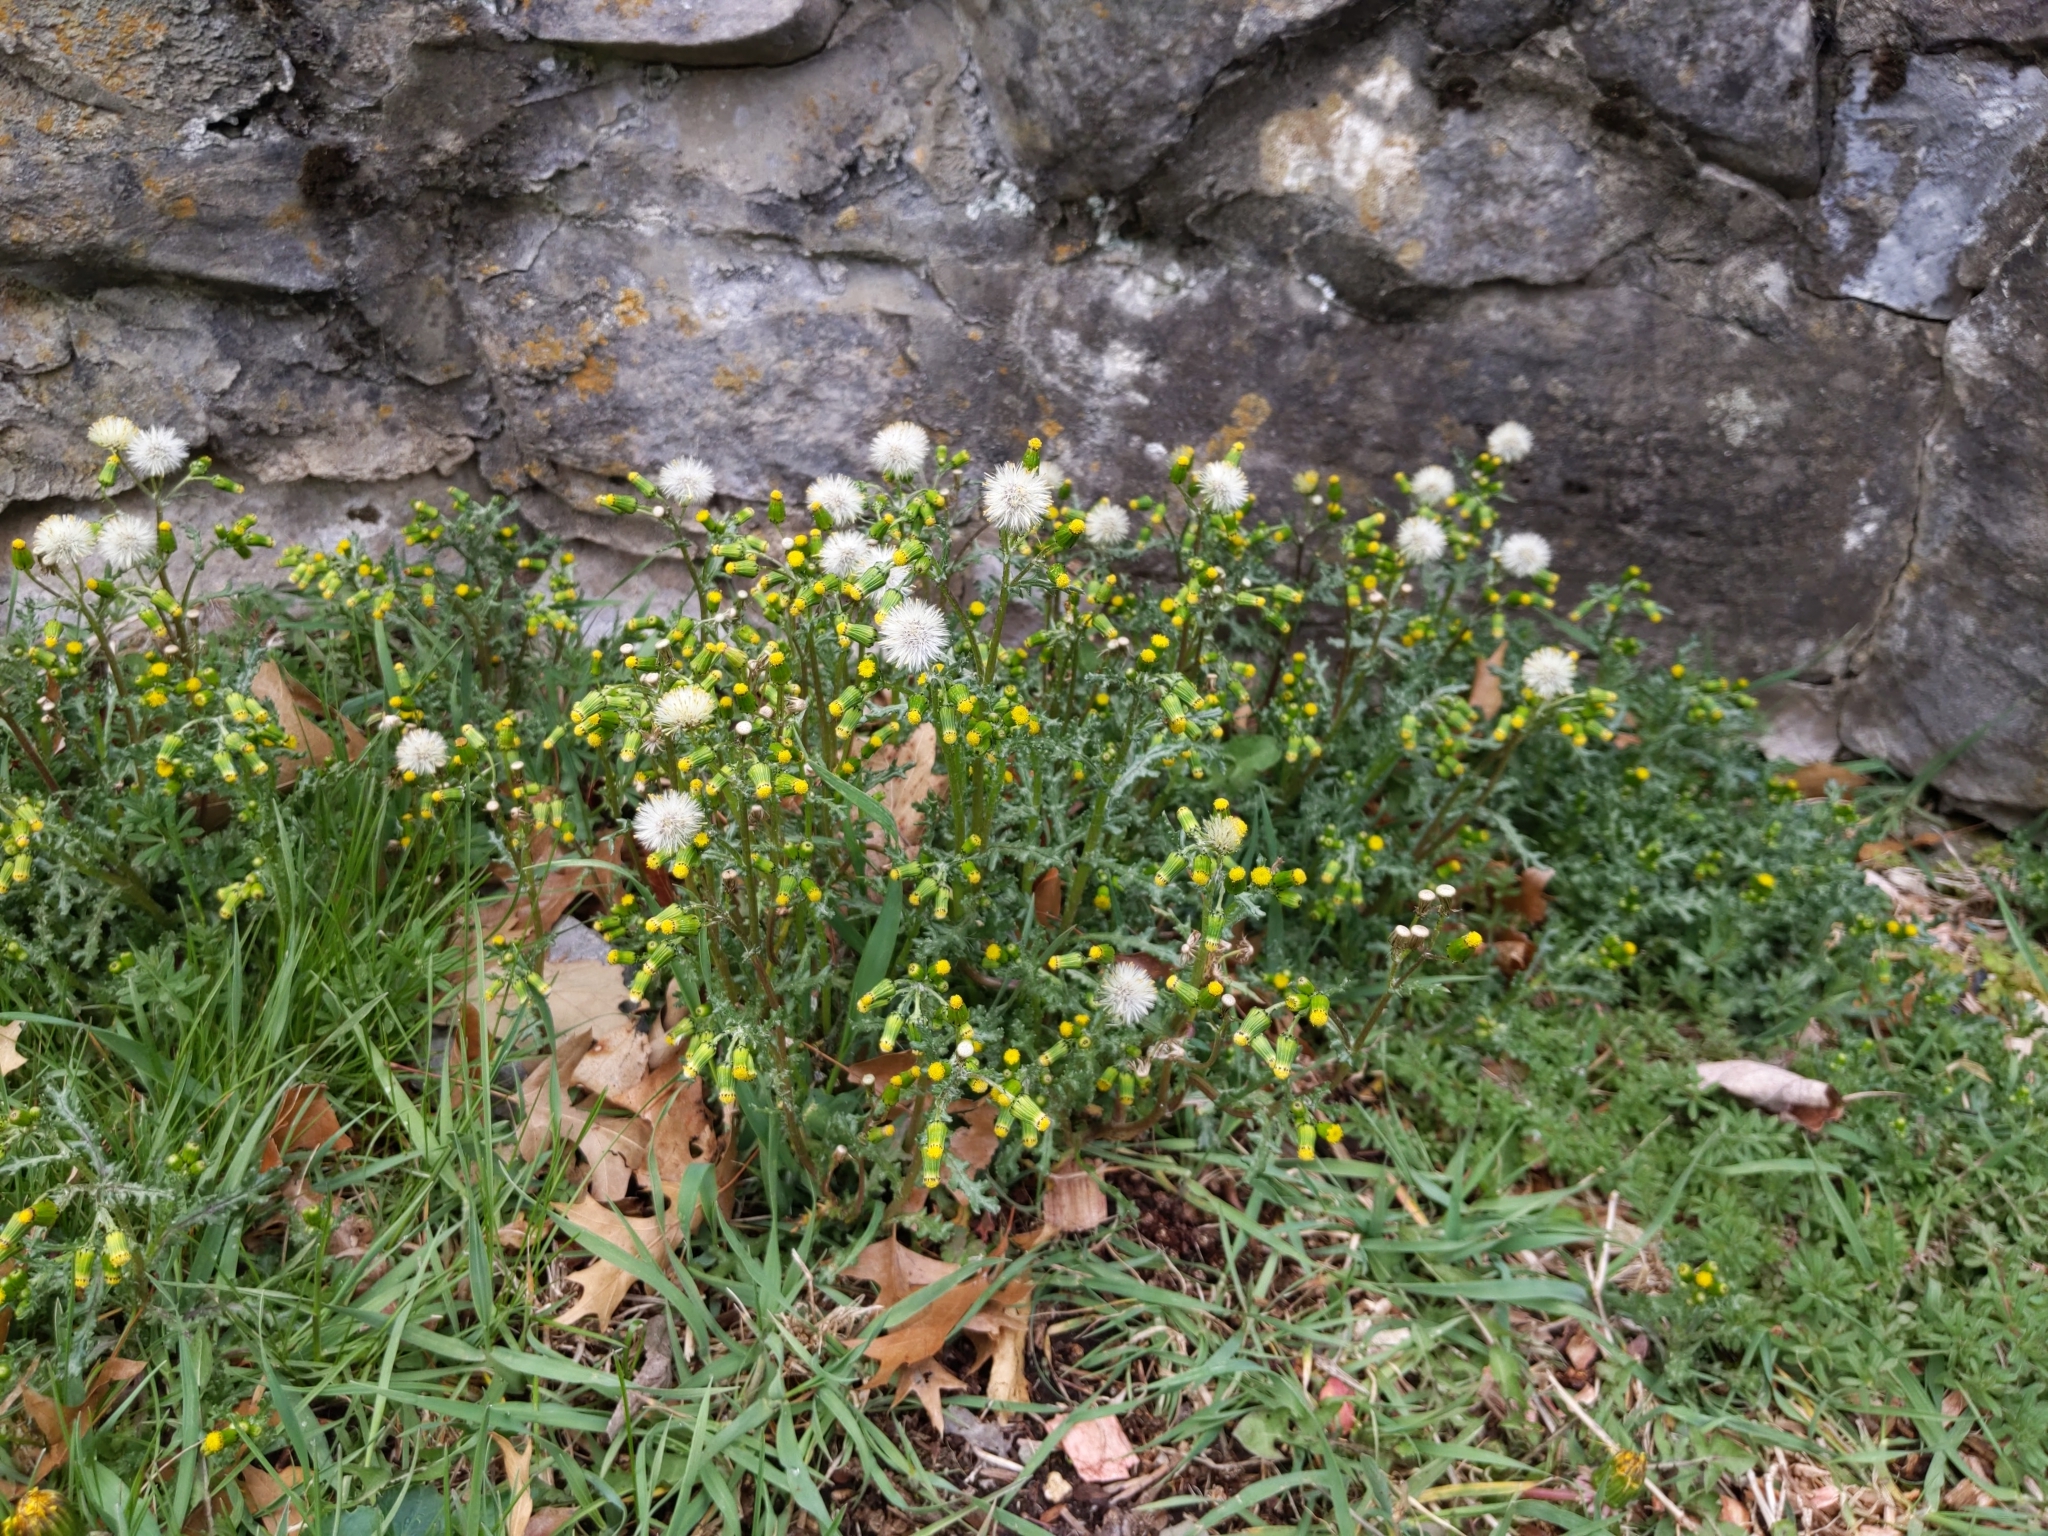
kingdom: Plantae
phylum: Tracheophyta
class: Magnoliopsida
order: Asterales
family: Asteraceae
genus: Senecio
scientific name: Senecio vulgaris
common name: Old-man-in-the-spring
